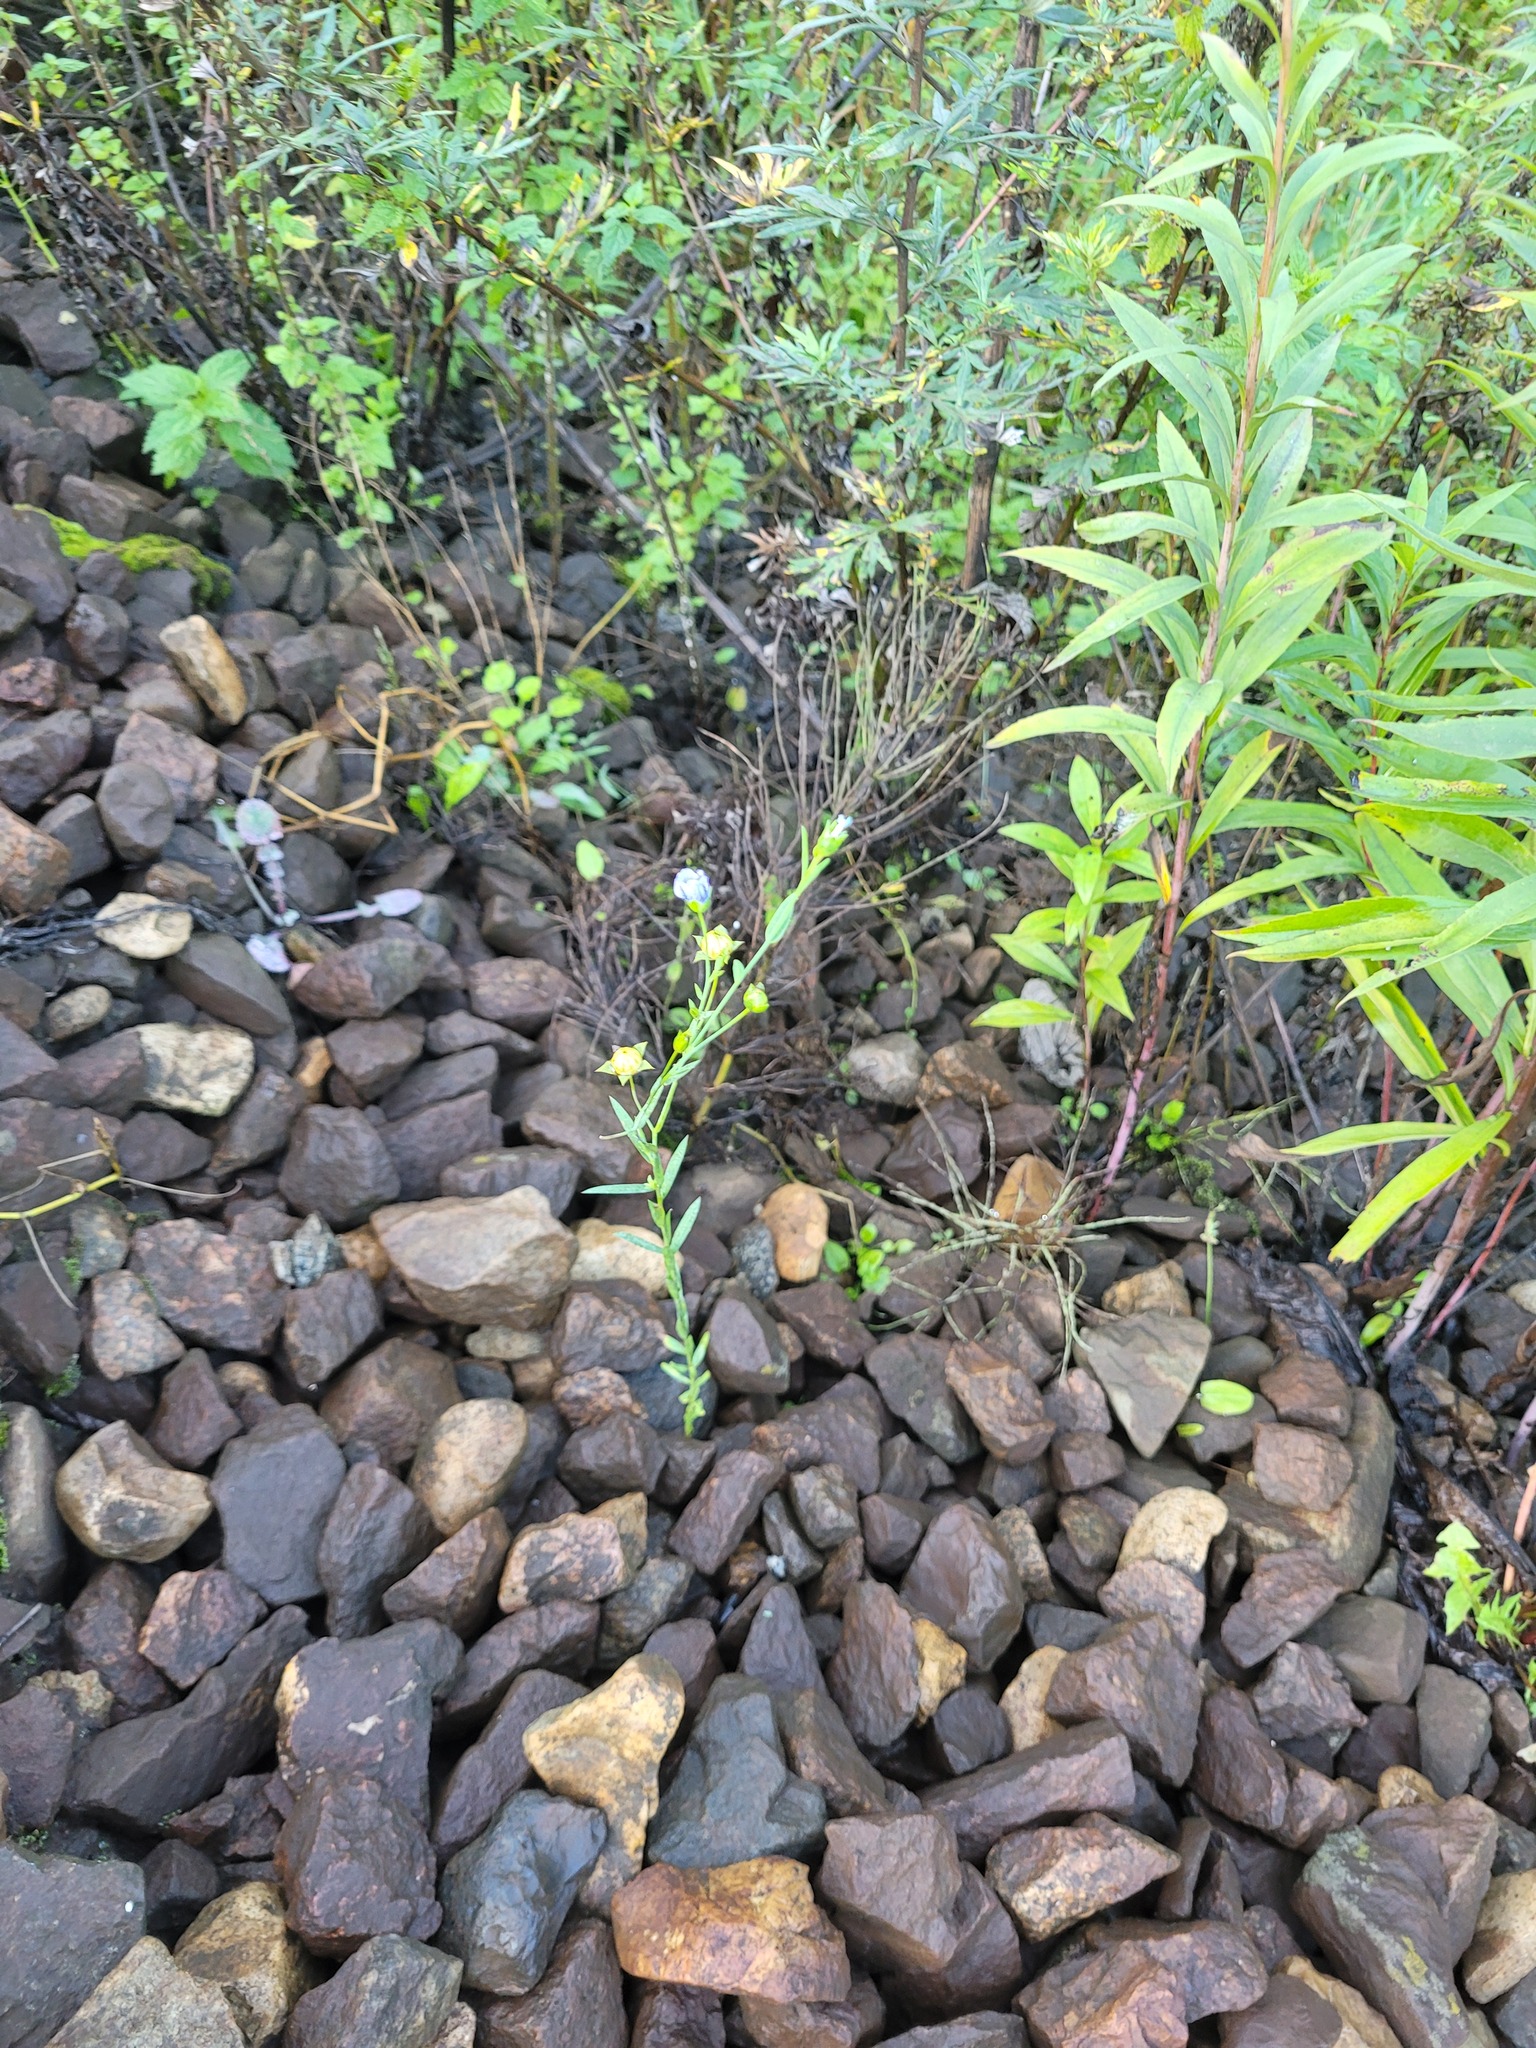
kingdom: Plantae
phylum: Tracheophyta
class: Magnoliopsida
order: Malpighiales
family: Linaceae
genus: Linum
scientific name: Linum usitatissimum
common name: Flax
